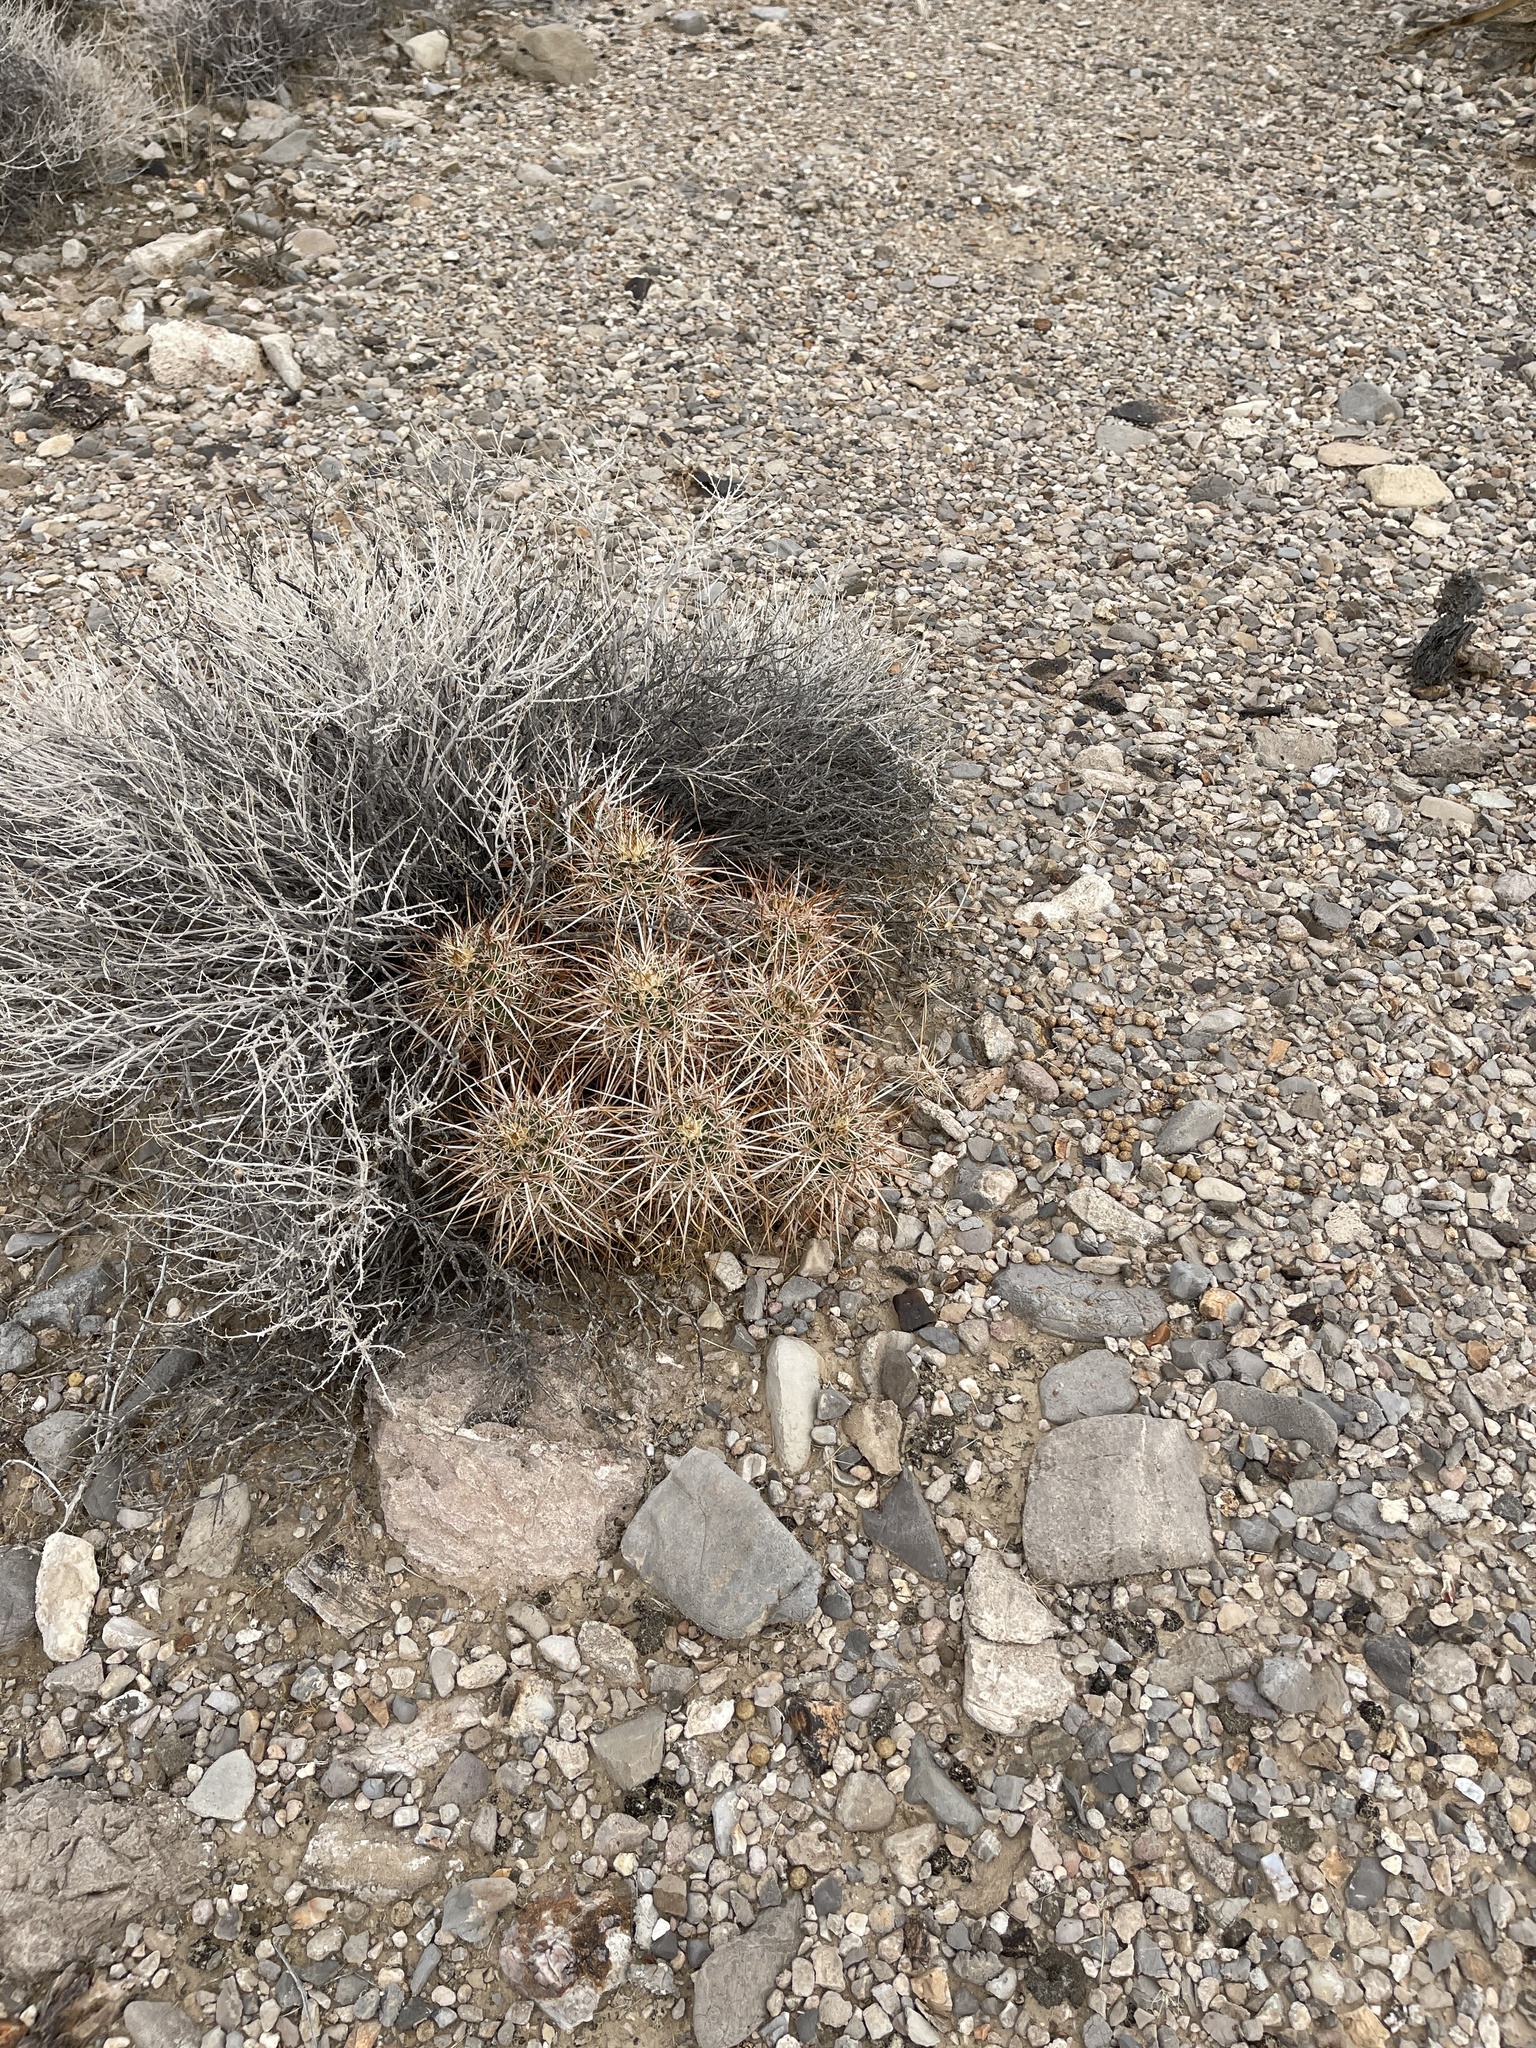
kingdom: Plantae
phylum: Tracheophyta
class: Magnoliopsida
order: Caryophyllales
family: Cactaceae
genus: Echinocereus
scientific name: Echinocereus engelmannii
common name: Engelmann's hedgehog cactus
